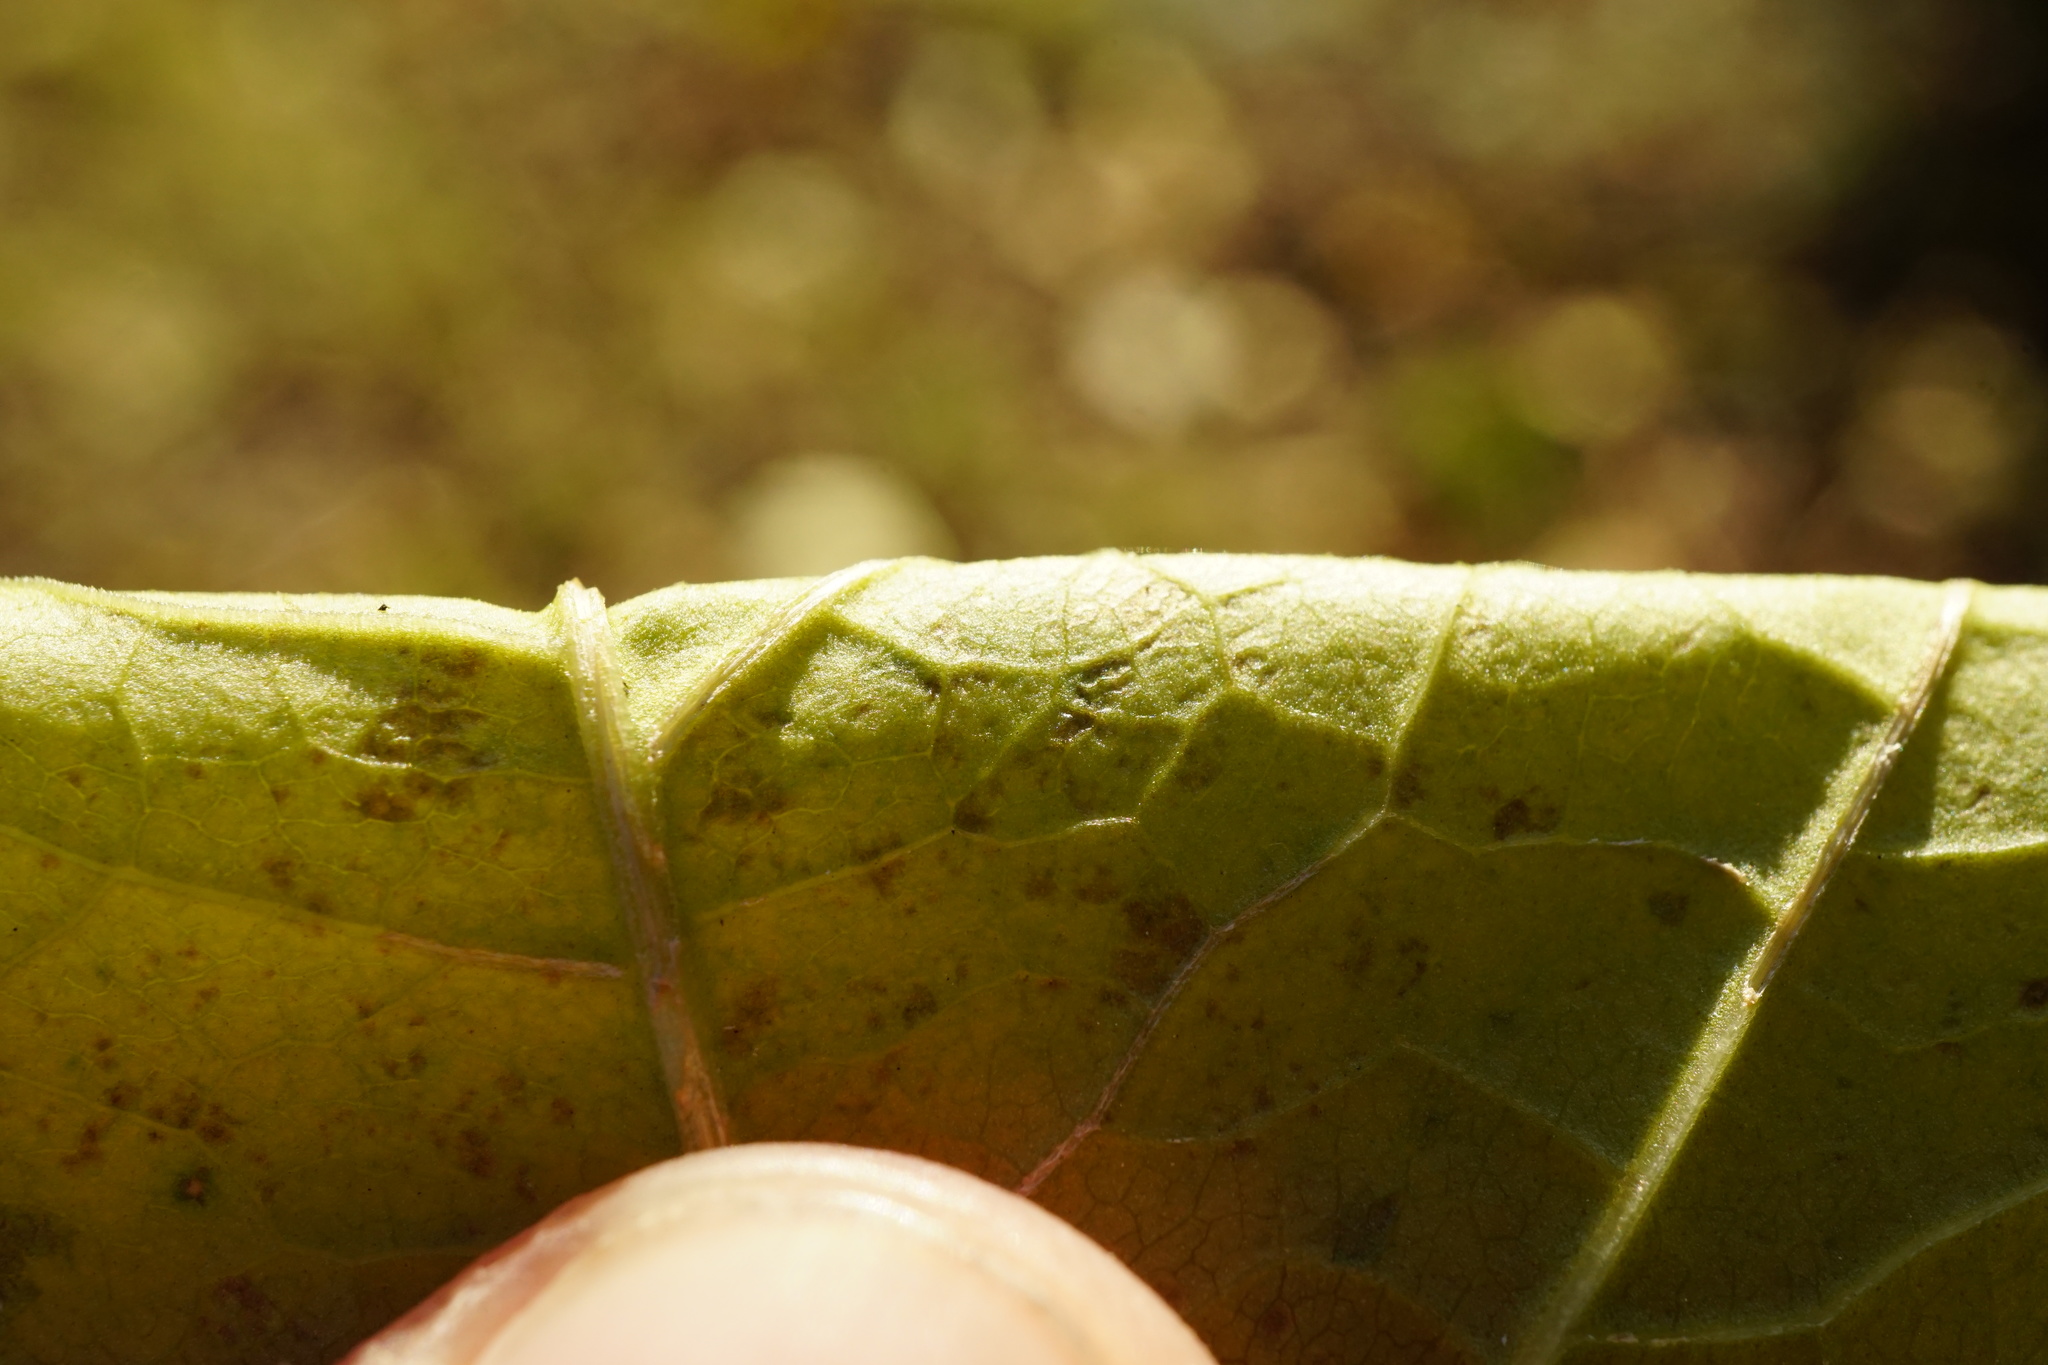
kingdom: Plantae
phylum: Tracheophyta
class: Magnoliopsida
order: Caryophyllales
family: Polygonaceae
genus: Reynoutria
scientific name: Reynoutria japonica
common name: Japanese knotweed
